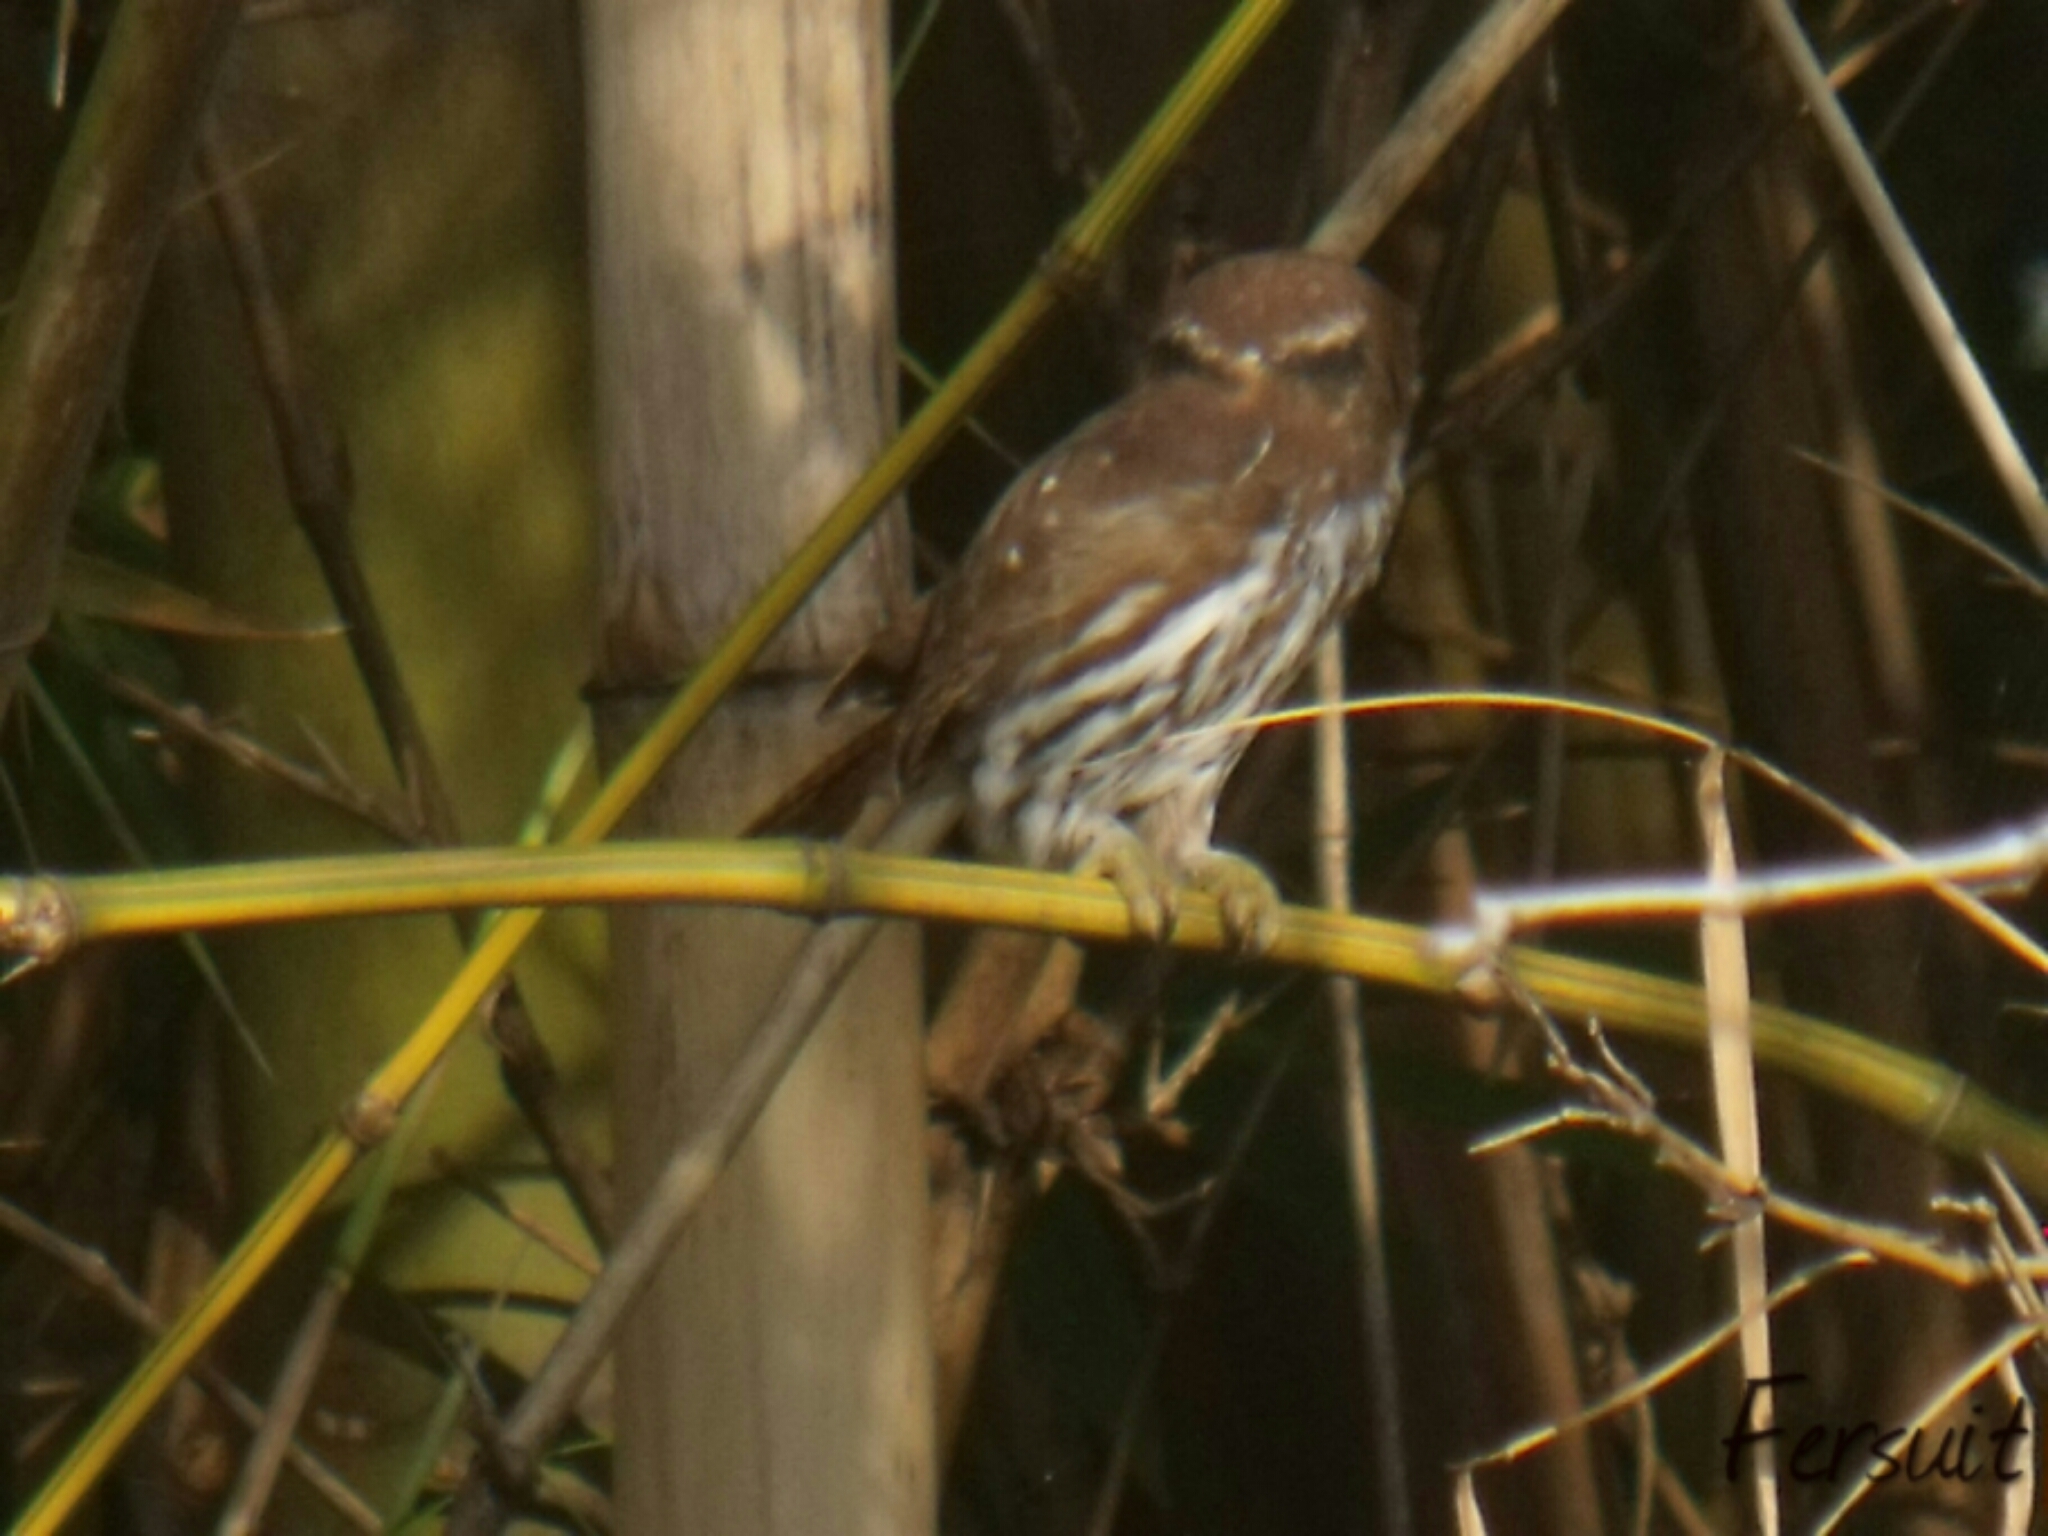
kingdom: Animalia
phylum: Chordata
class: Aves
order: Strigiformes
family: Strigidae
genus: Glaucidium
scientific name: Glaucidium brasilianum
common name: Ferruginous pygmy-owl
